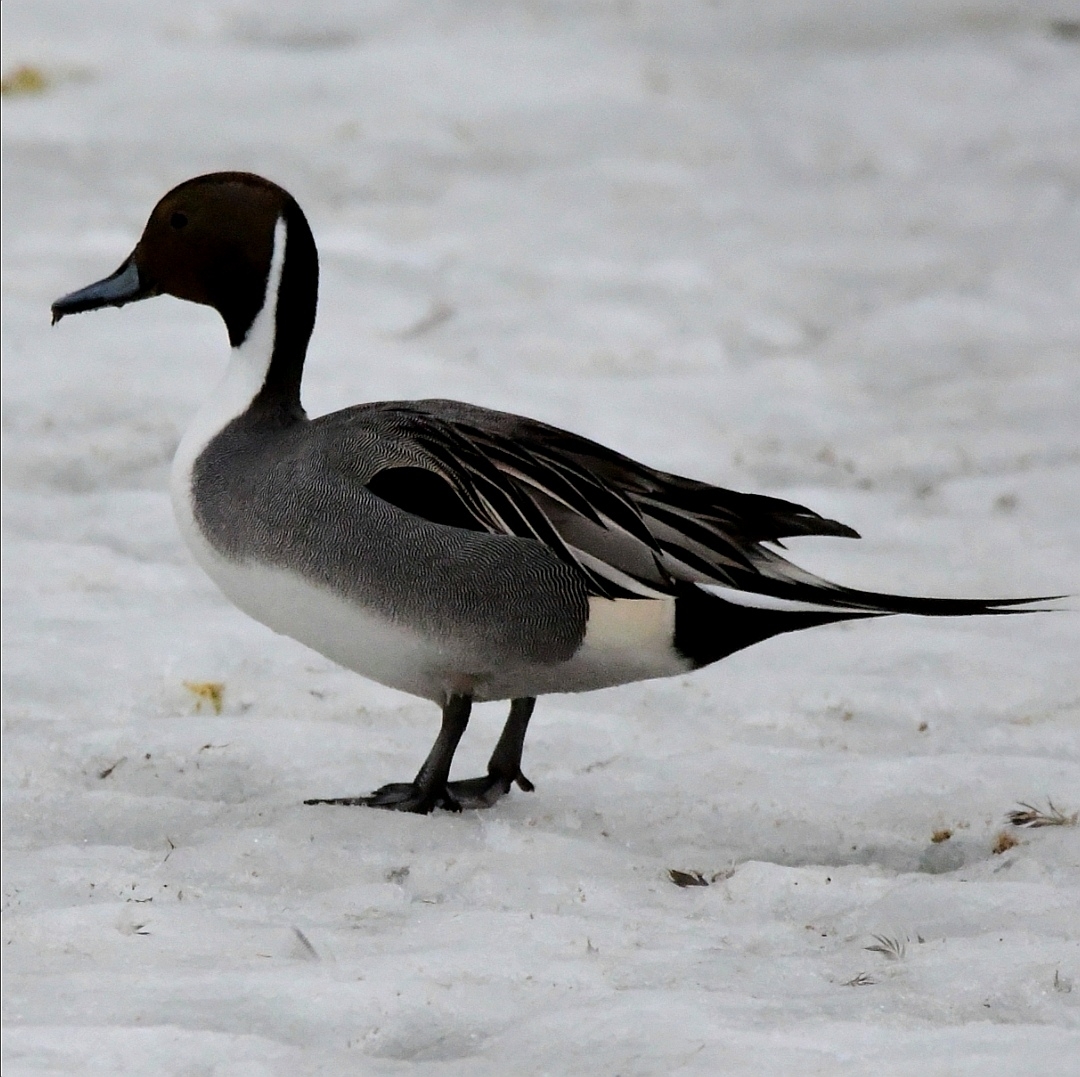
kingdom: Animalia
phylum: Chordata
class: Aves
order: Anseriformes
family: Anatidae
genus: Anas
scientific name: Anas acuta
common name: Northern pintail
